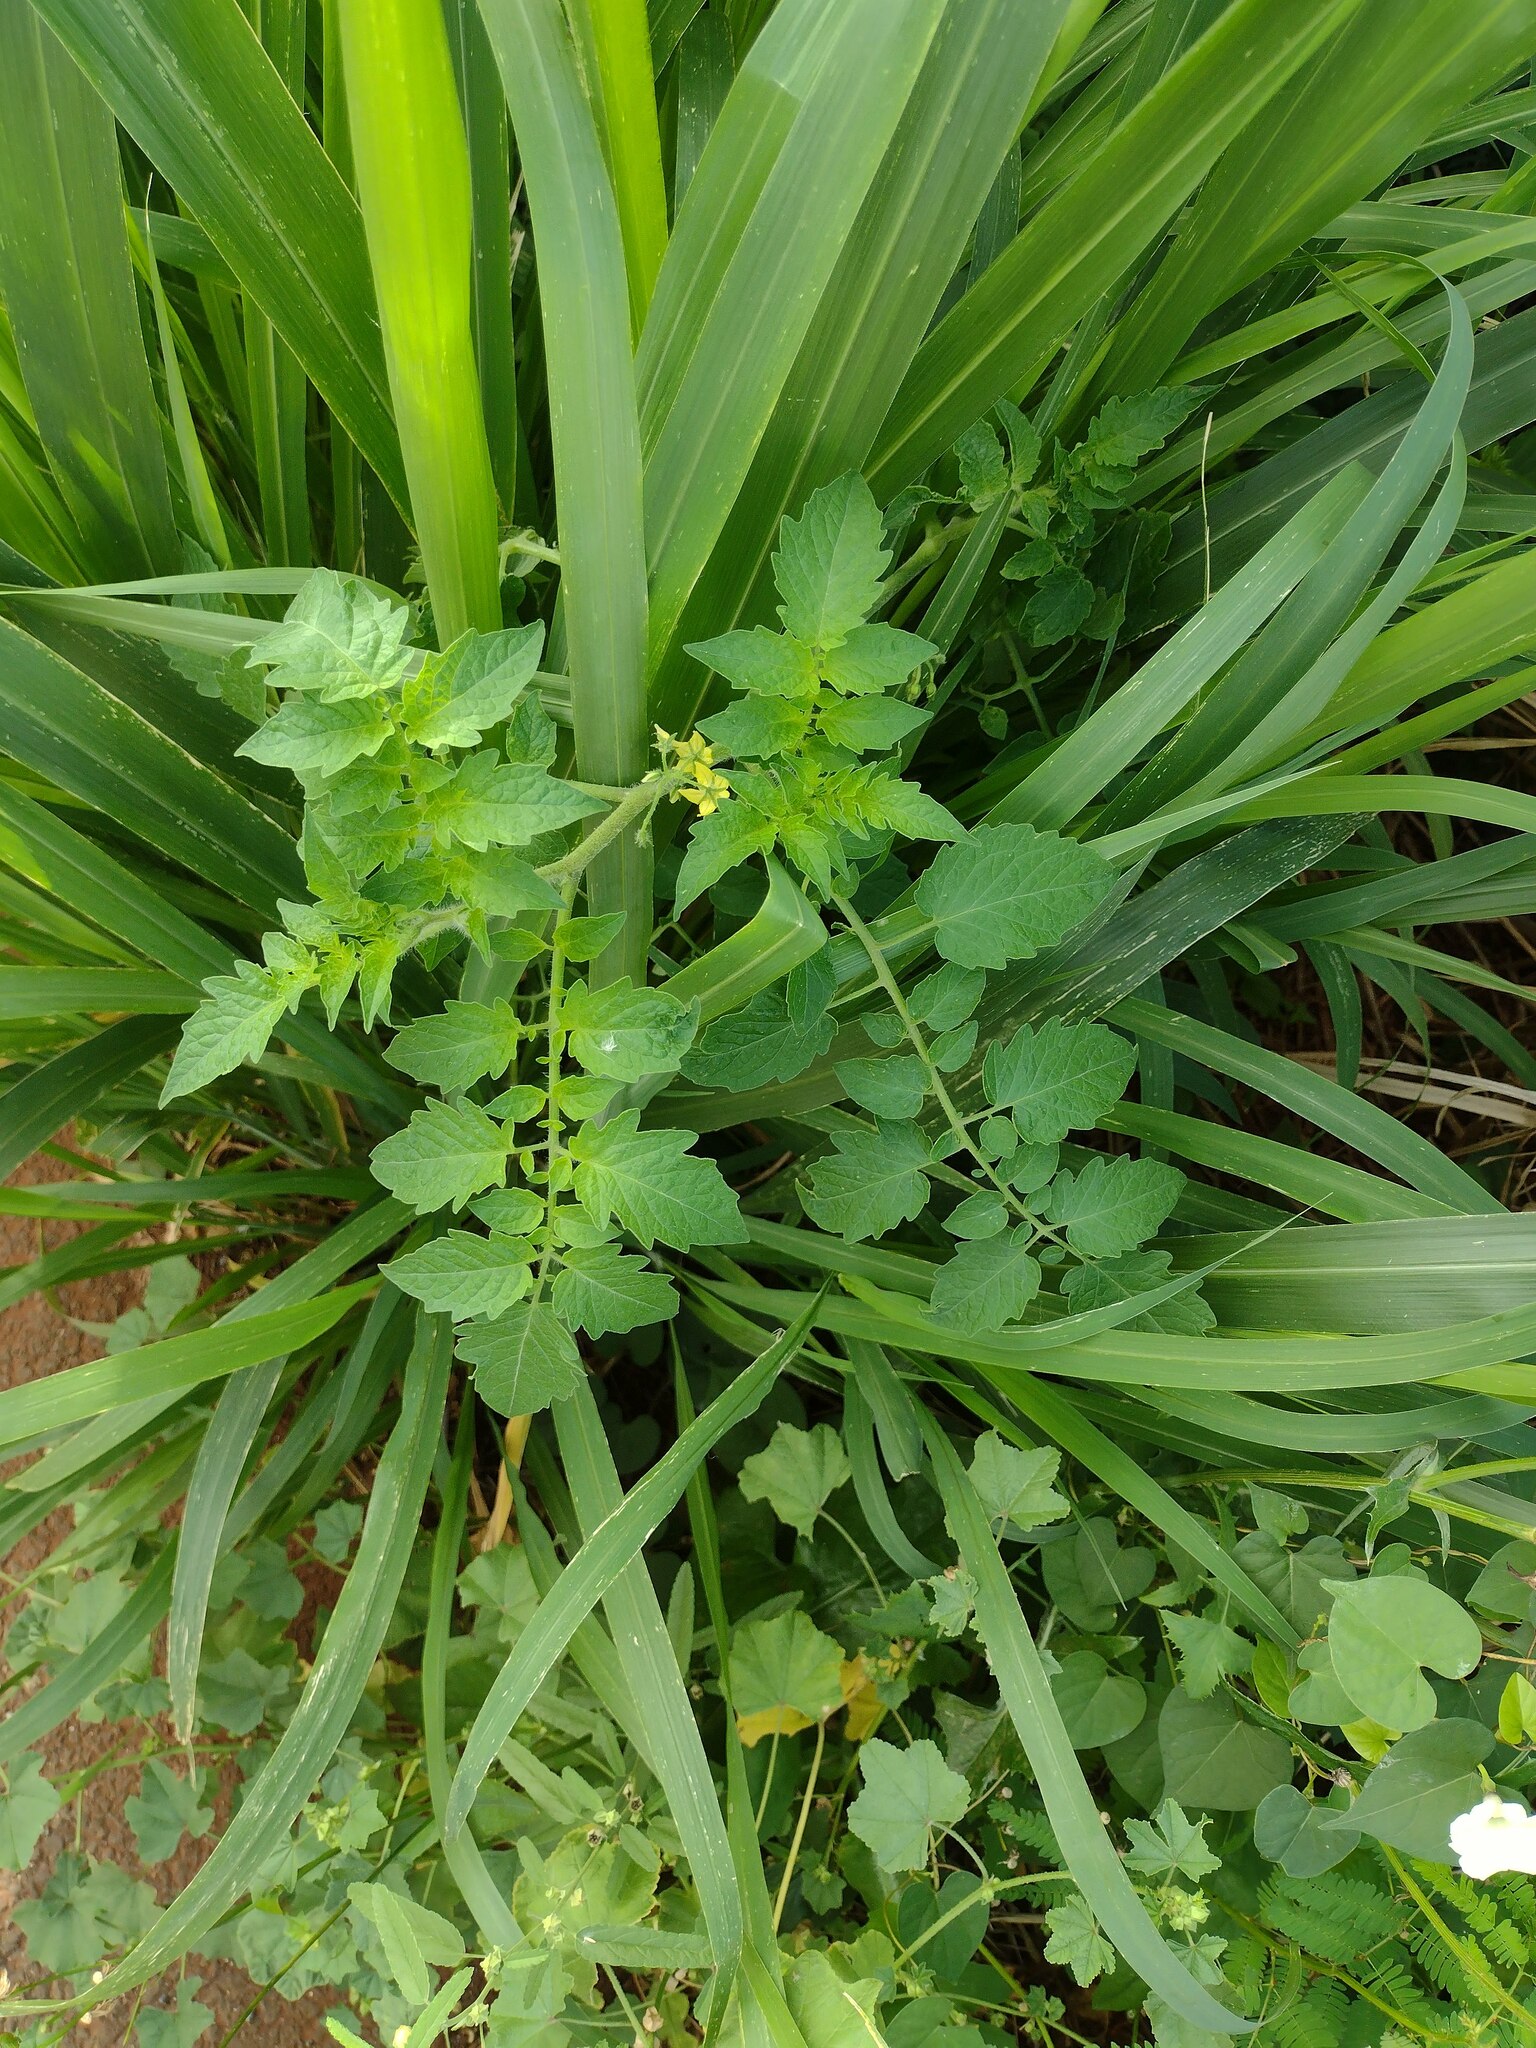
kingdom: Plantae
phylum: Tracheophyta
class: Magnoliopsida
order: Solanales
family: Solanaceae
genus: Solanum
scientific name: Solanum lycopersicum
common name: Garden tomato
